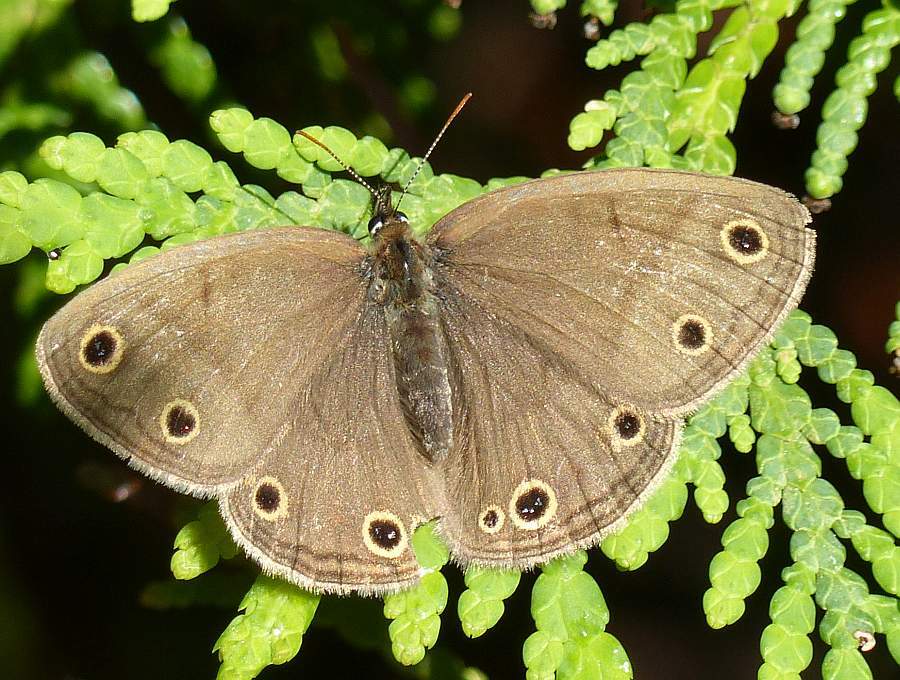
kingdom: Animalia
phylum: Arthropoda
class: Insecta
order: Lepidoptera
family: Nymphalidae
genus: Euptychia
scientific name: Euptychia cymela
